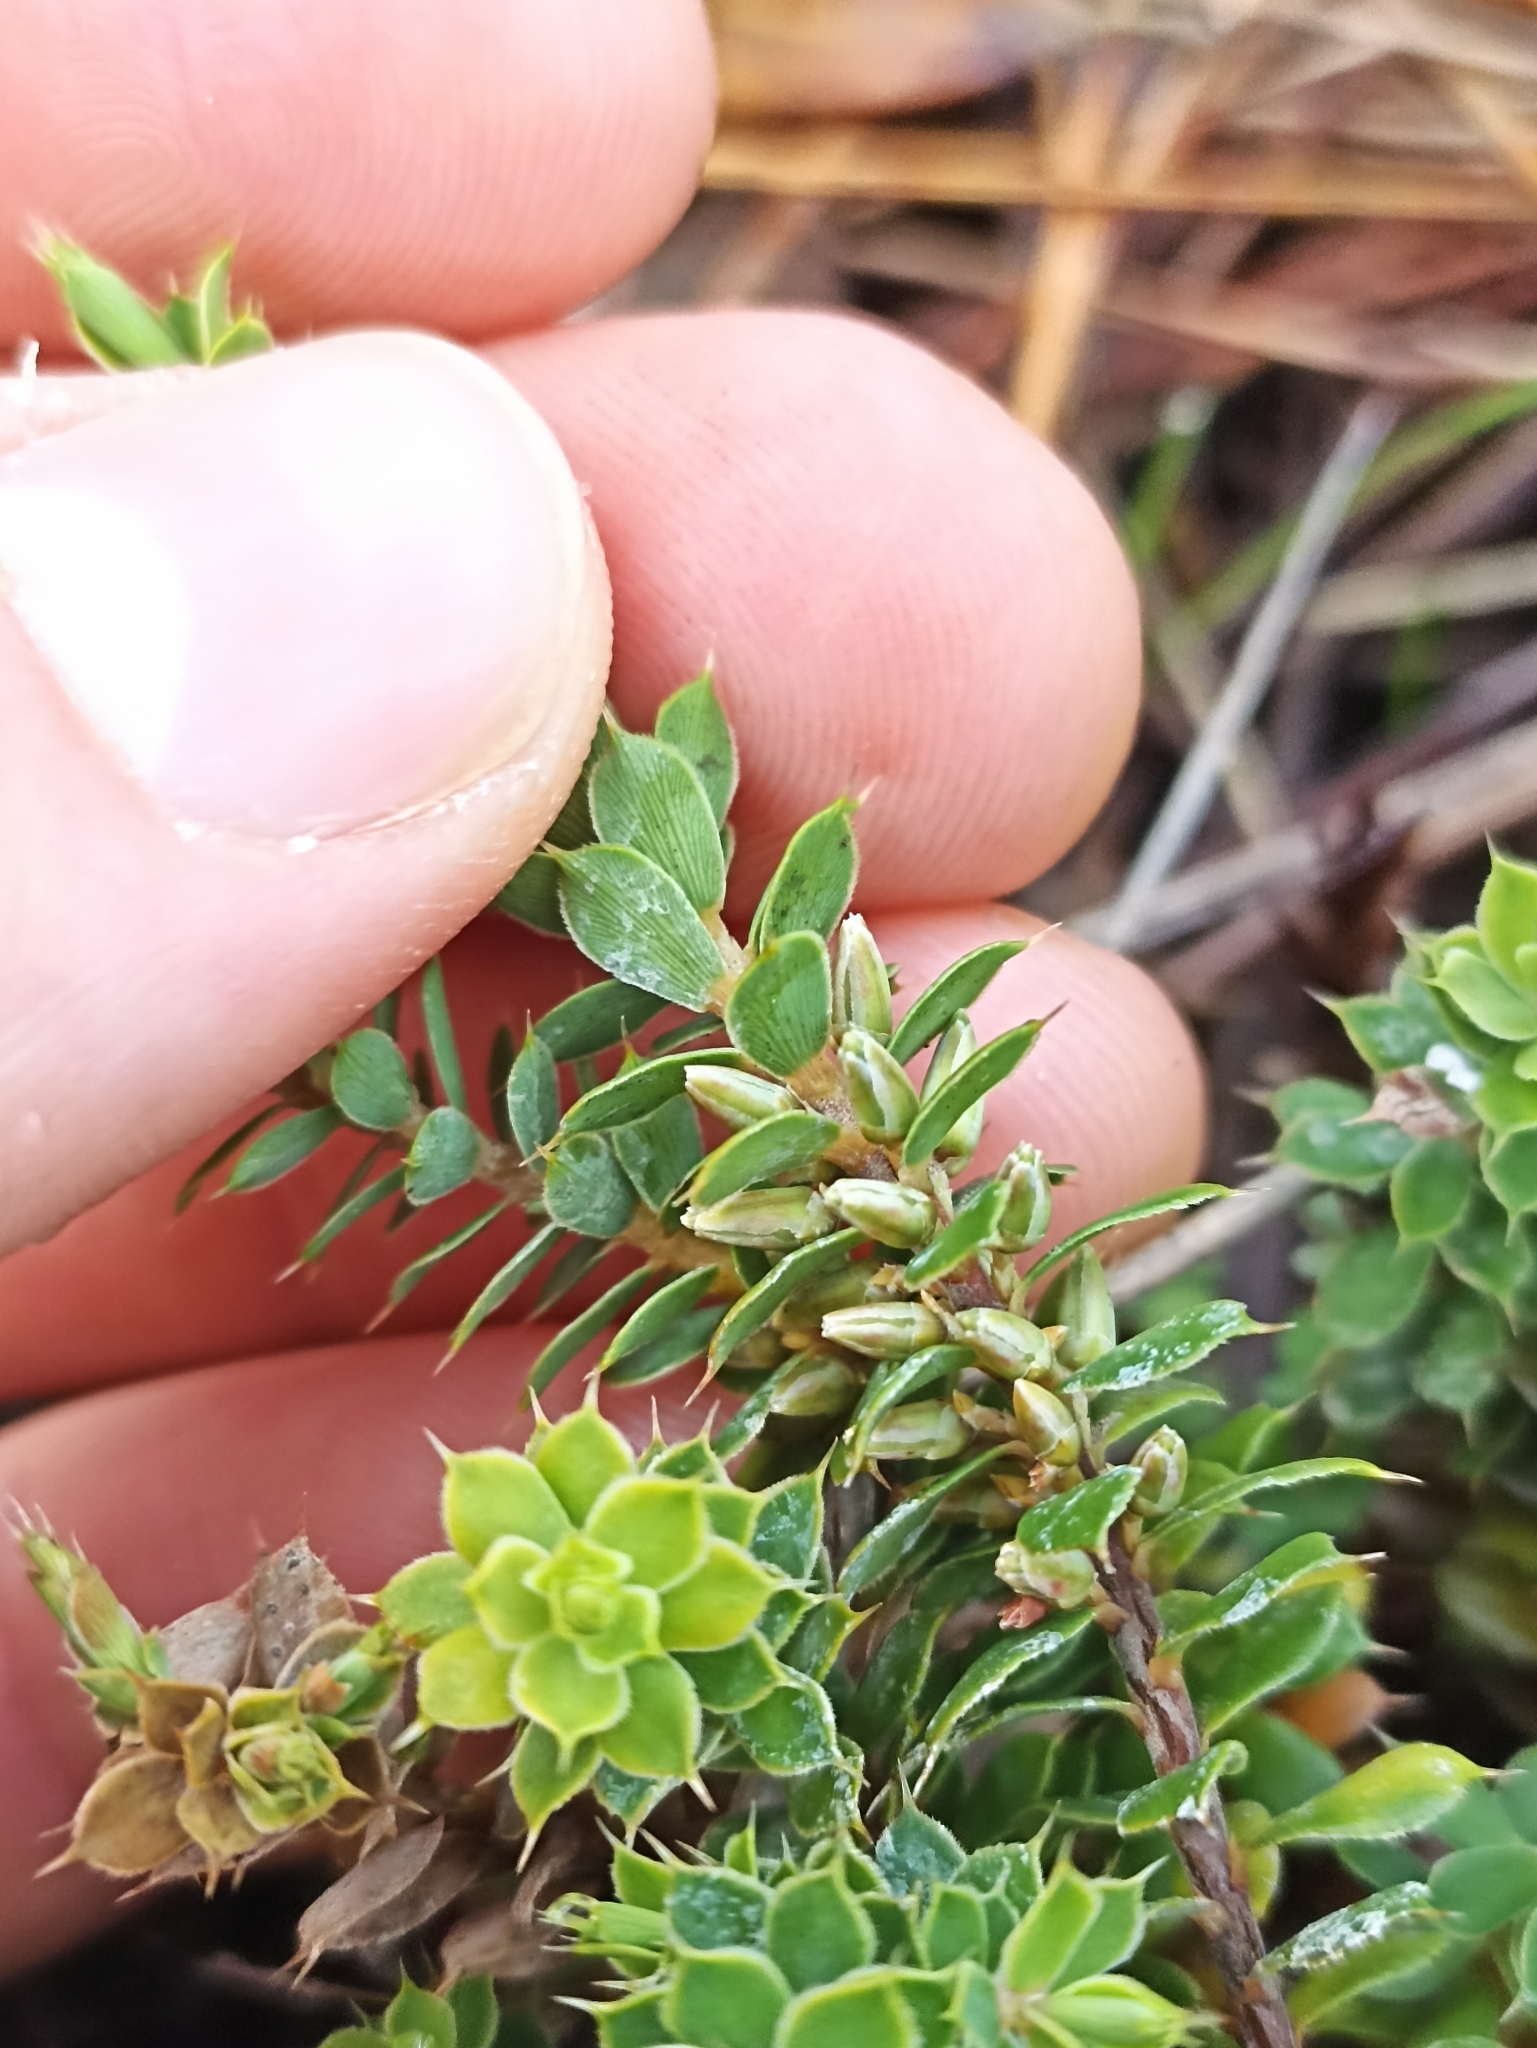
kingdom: Plantae
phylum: Tracheophyta
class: Magnoliopsida
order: Ericales
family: Ericaceae
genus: Styphelia
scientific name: Styphelia nesophila
